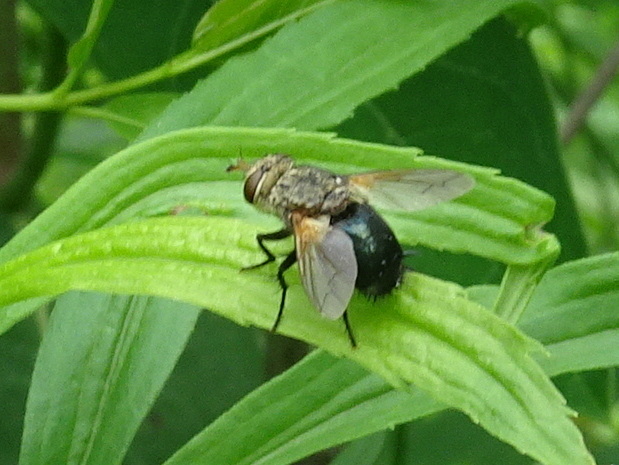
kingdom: Animalia
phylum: Arthropoda
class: Insecta
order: Diptera
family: Tachinidae
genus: Archytas
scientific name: Archytas apicifer
